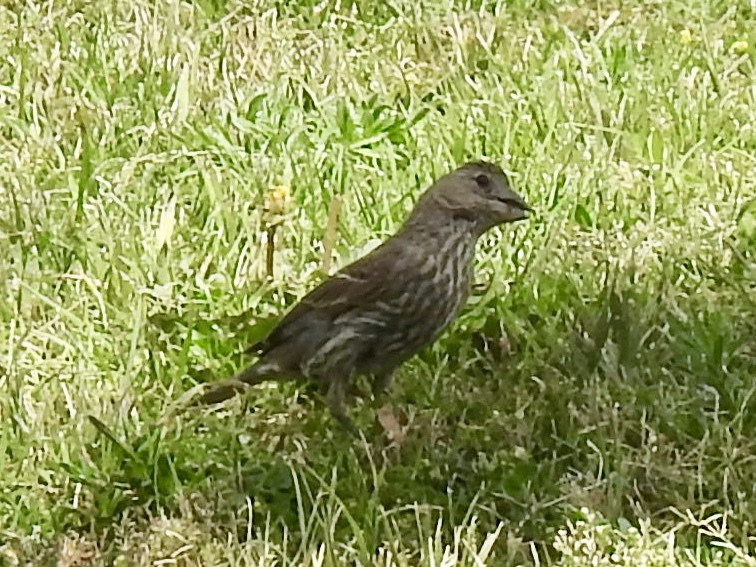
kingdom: Animalia
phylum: Chordata
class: Aves
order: Passeriformes
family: Fringillidae
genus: Haemorhous
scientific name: Haemorhous mexicanus
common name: House finch
